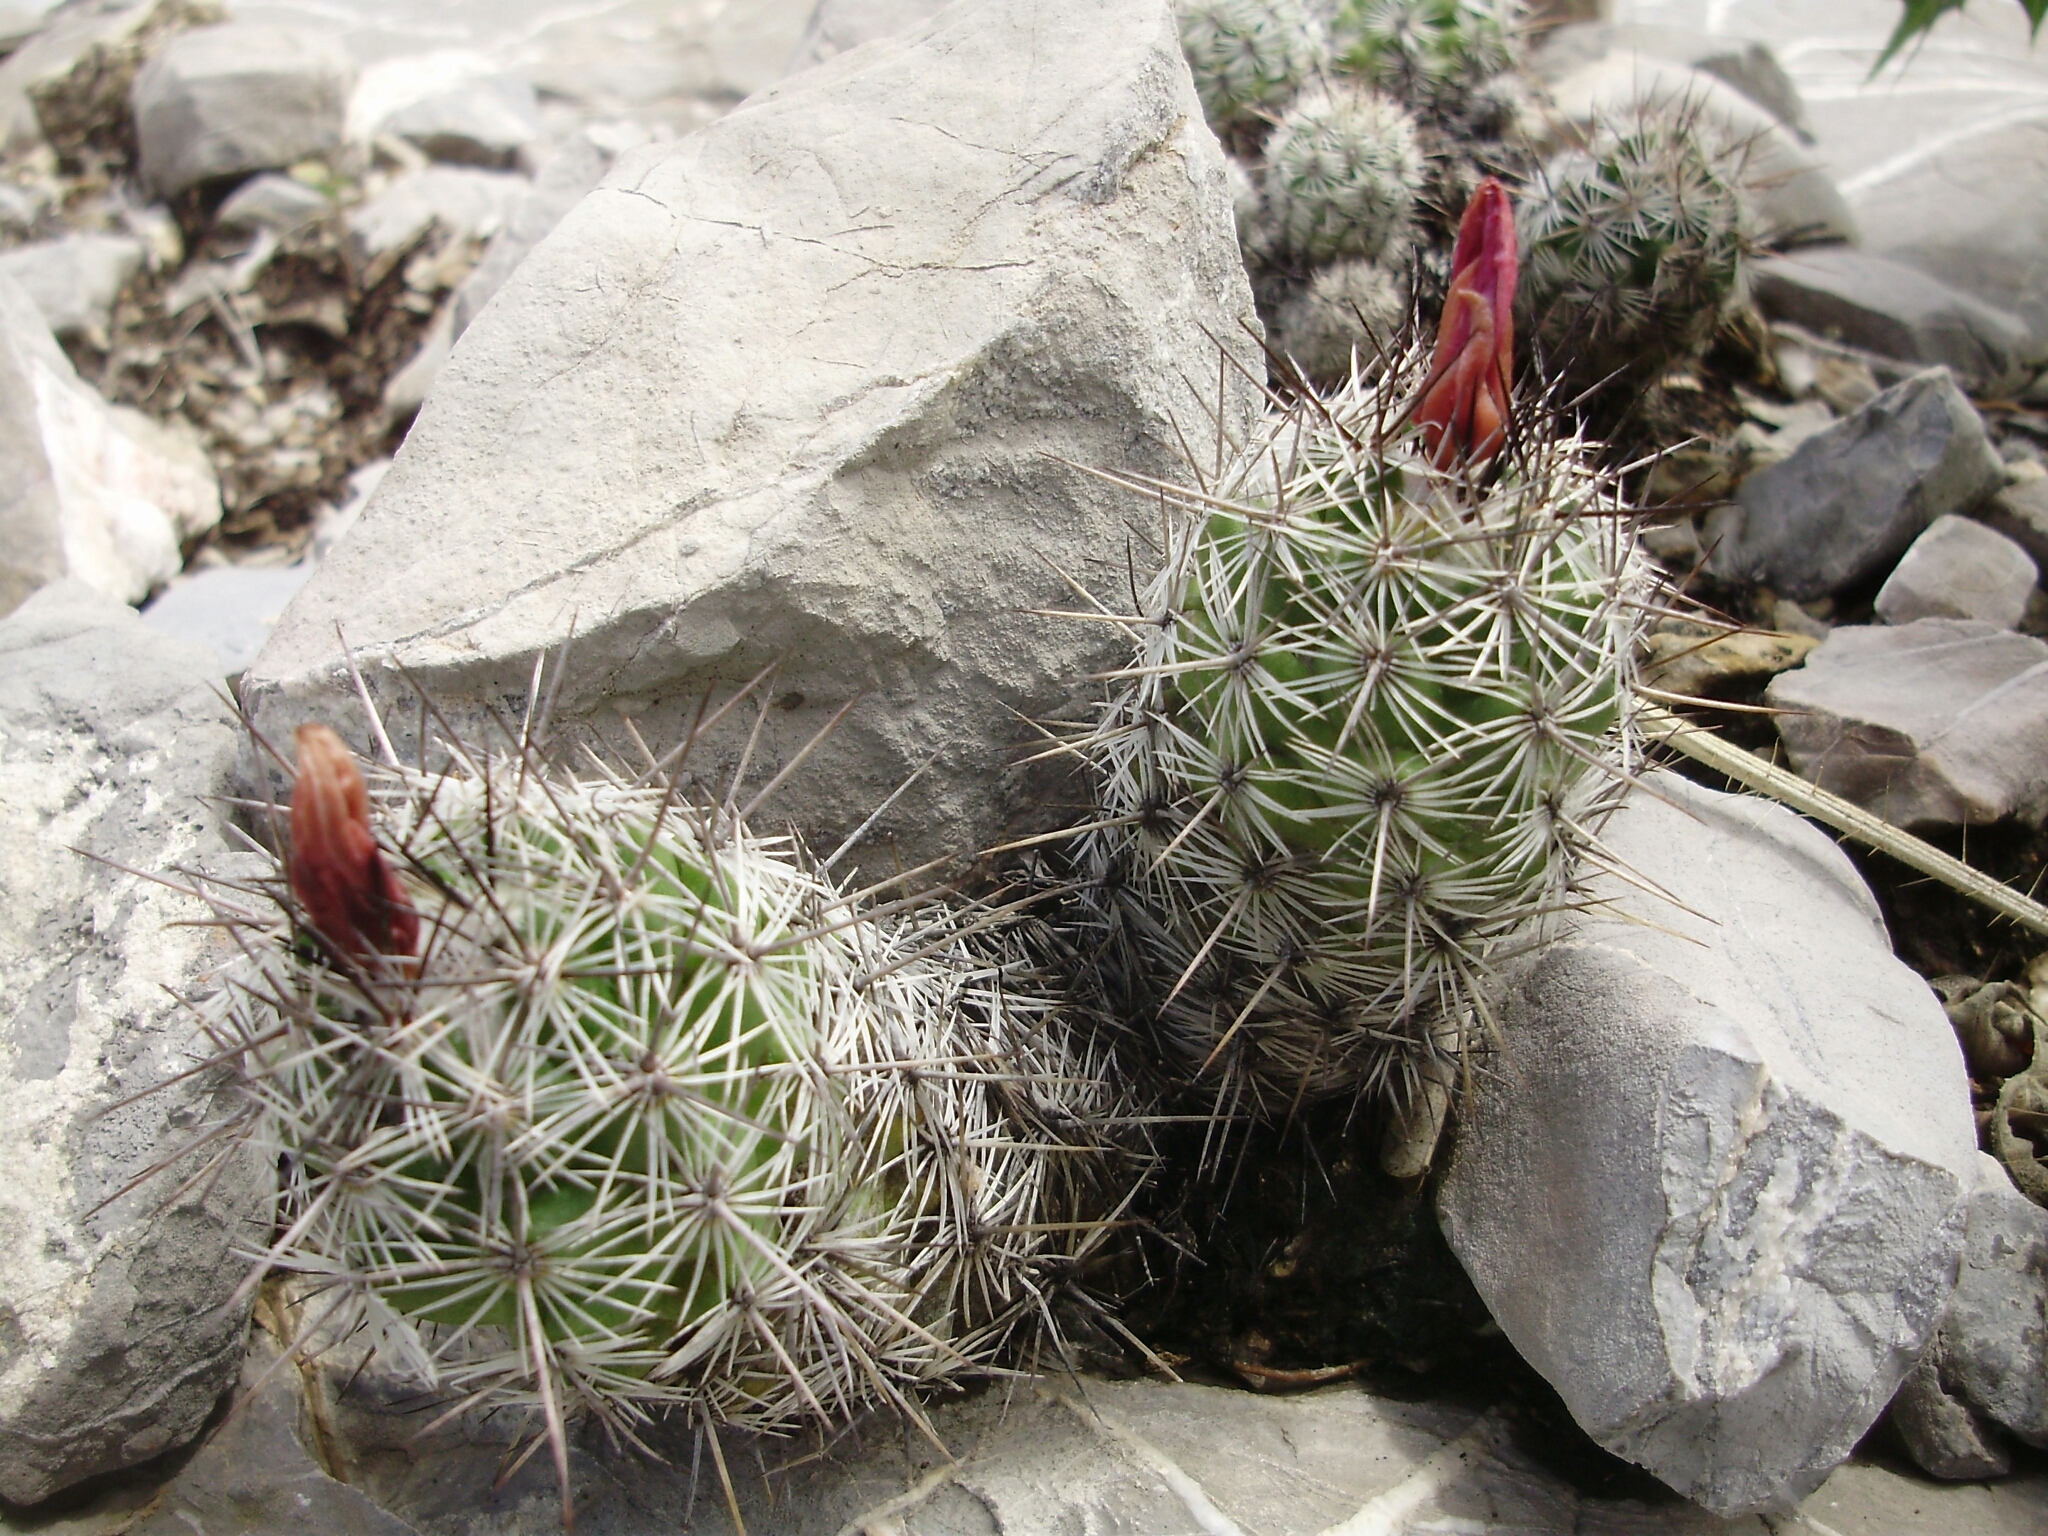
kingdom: Plantae
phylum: Tracheophyta
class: Magnoliopsida
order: Caryophyllales
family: Cactaceae
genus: Cochemiea
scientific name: Cochemiea conoidea
